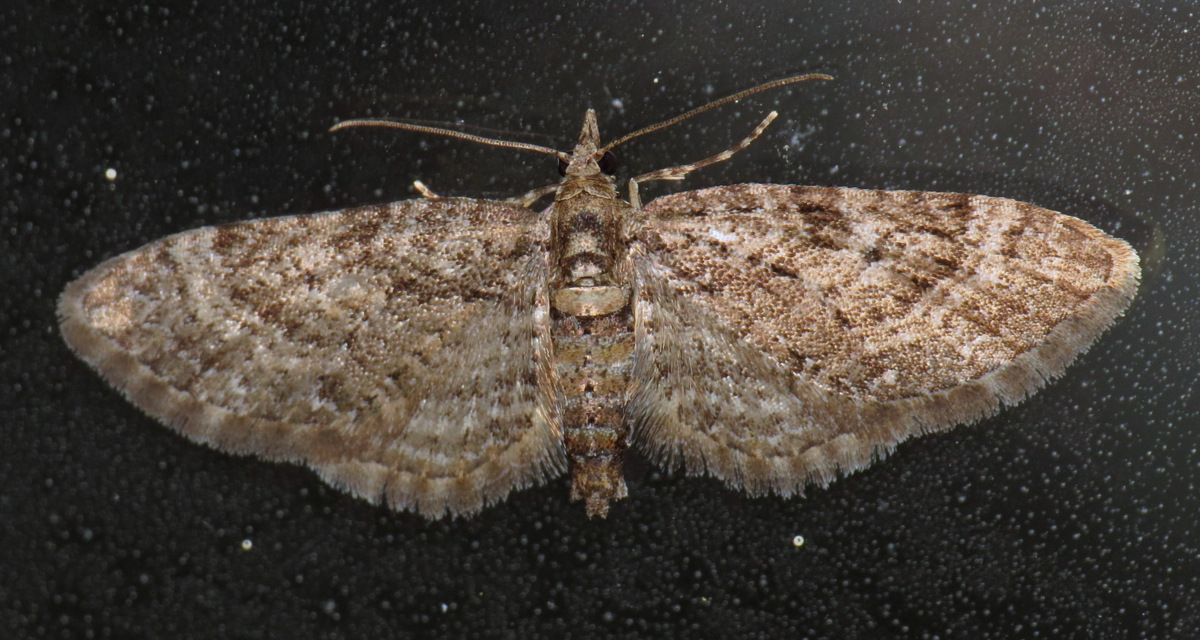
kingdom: Animalia
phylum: Arthropoda
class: Insecta
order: Lepidoptera
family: Geometridae
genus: Eupithecia
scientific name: Eupithecia
